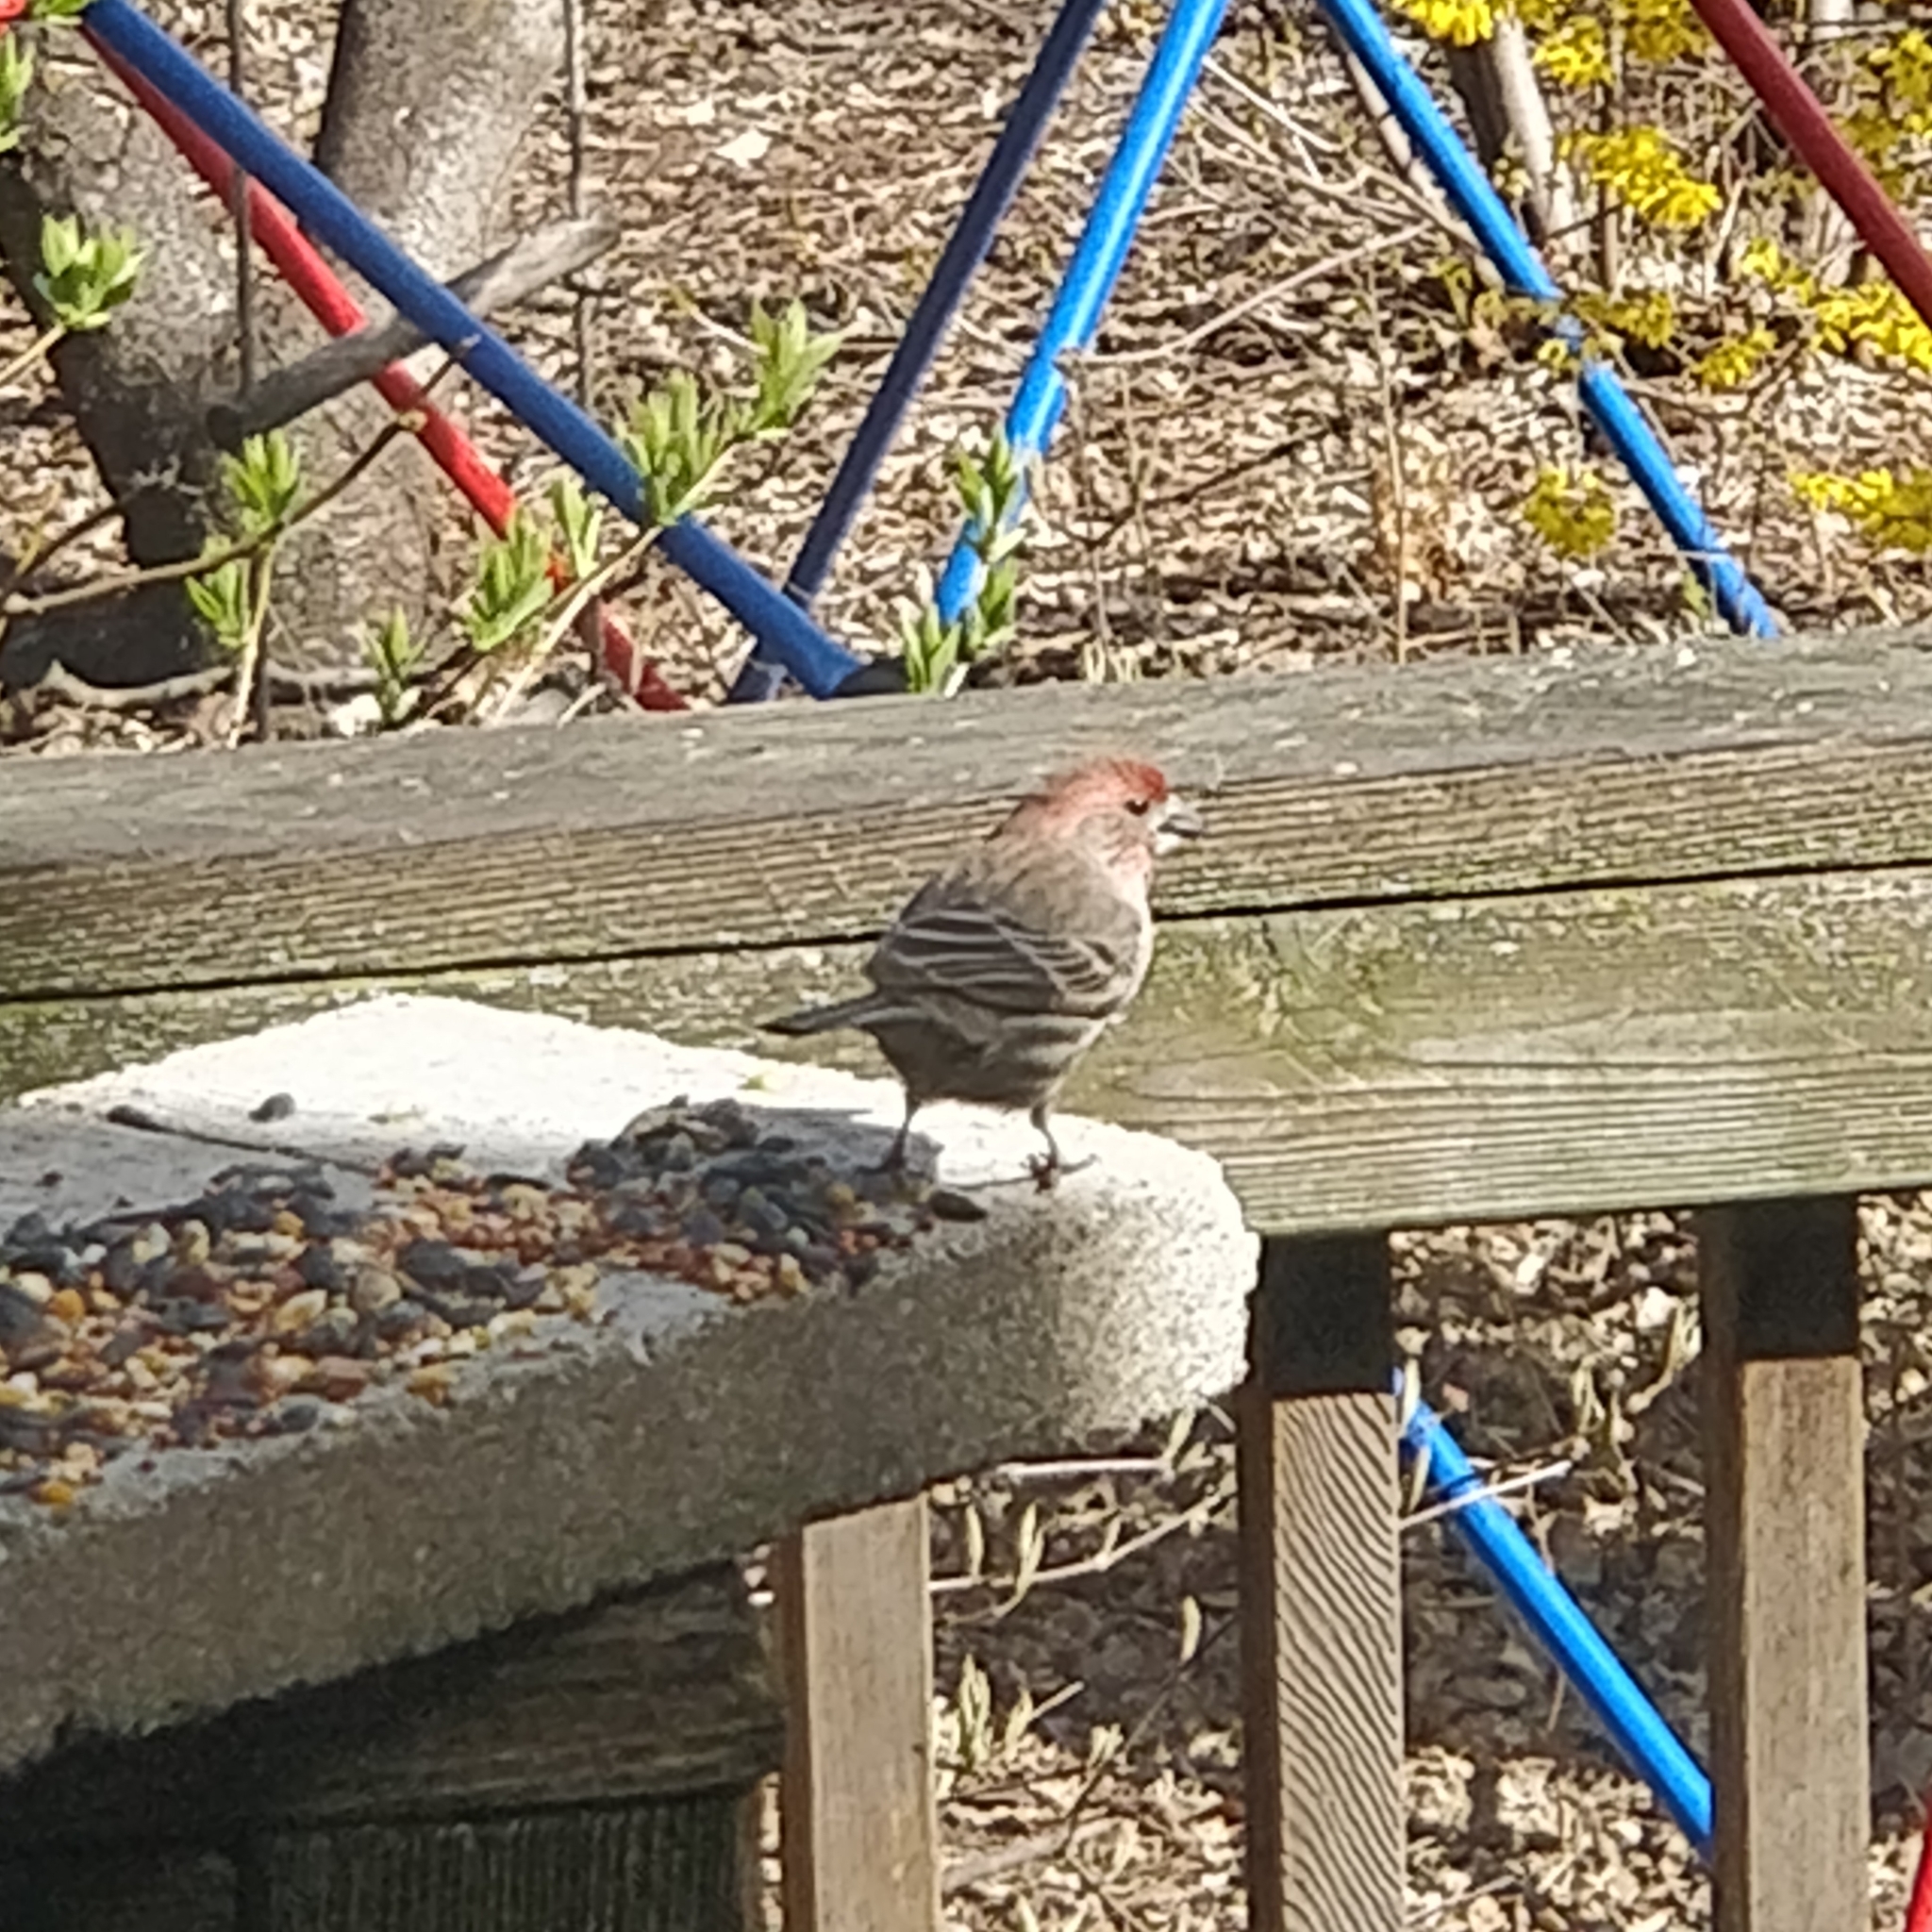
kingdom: Animalia
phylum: Chordata
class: Aves
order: Passeriformes
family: Fringillidae
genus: Haemorhous
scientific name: Haemorhous mexicanus
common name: House finch
